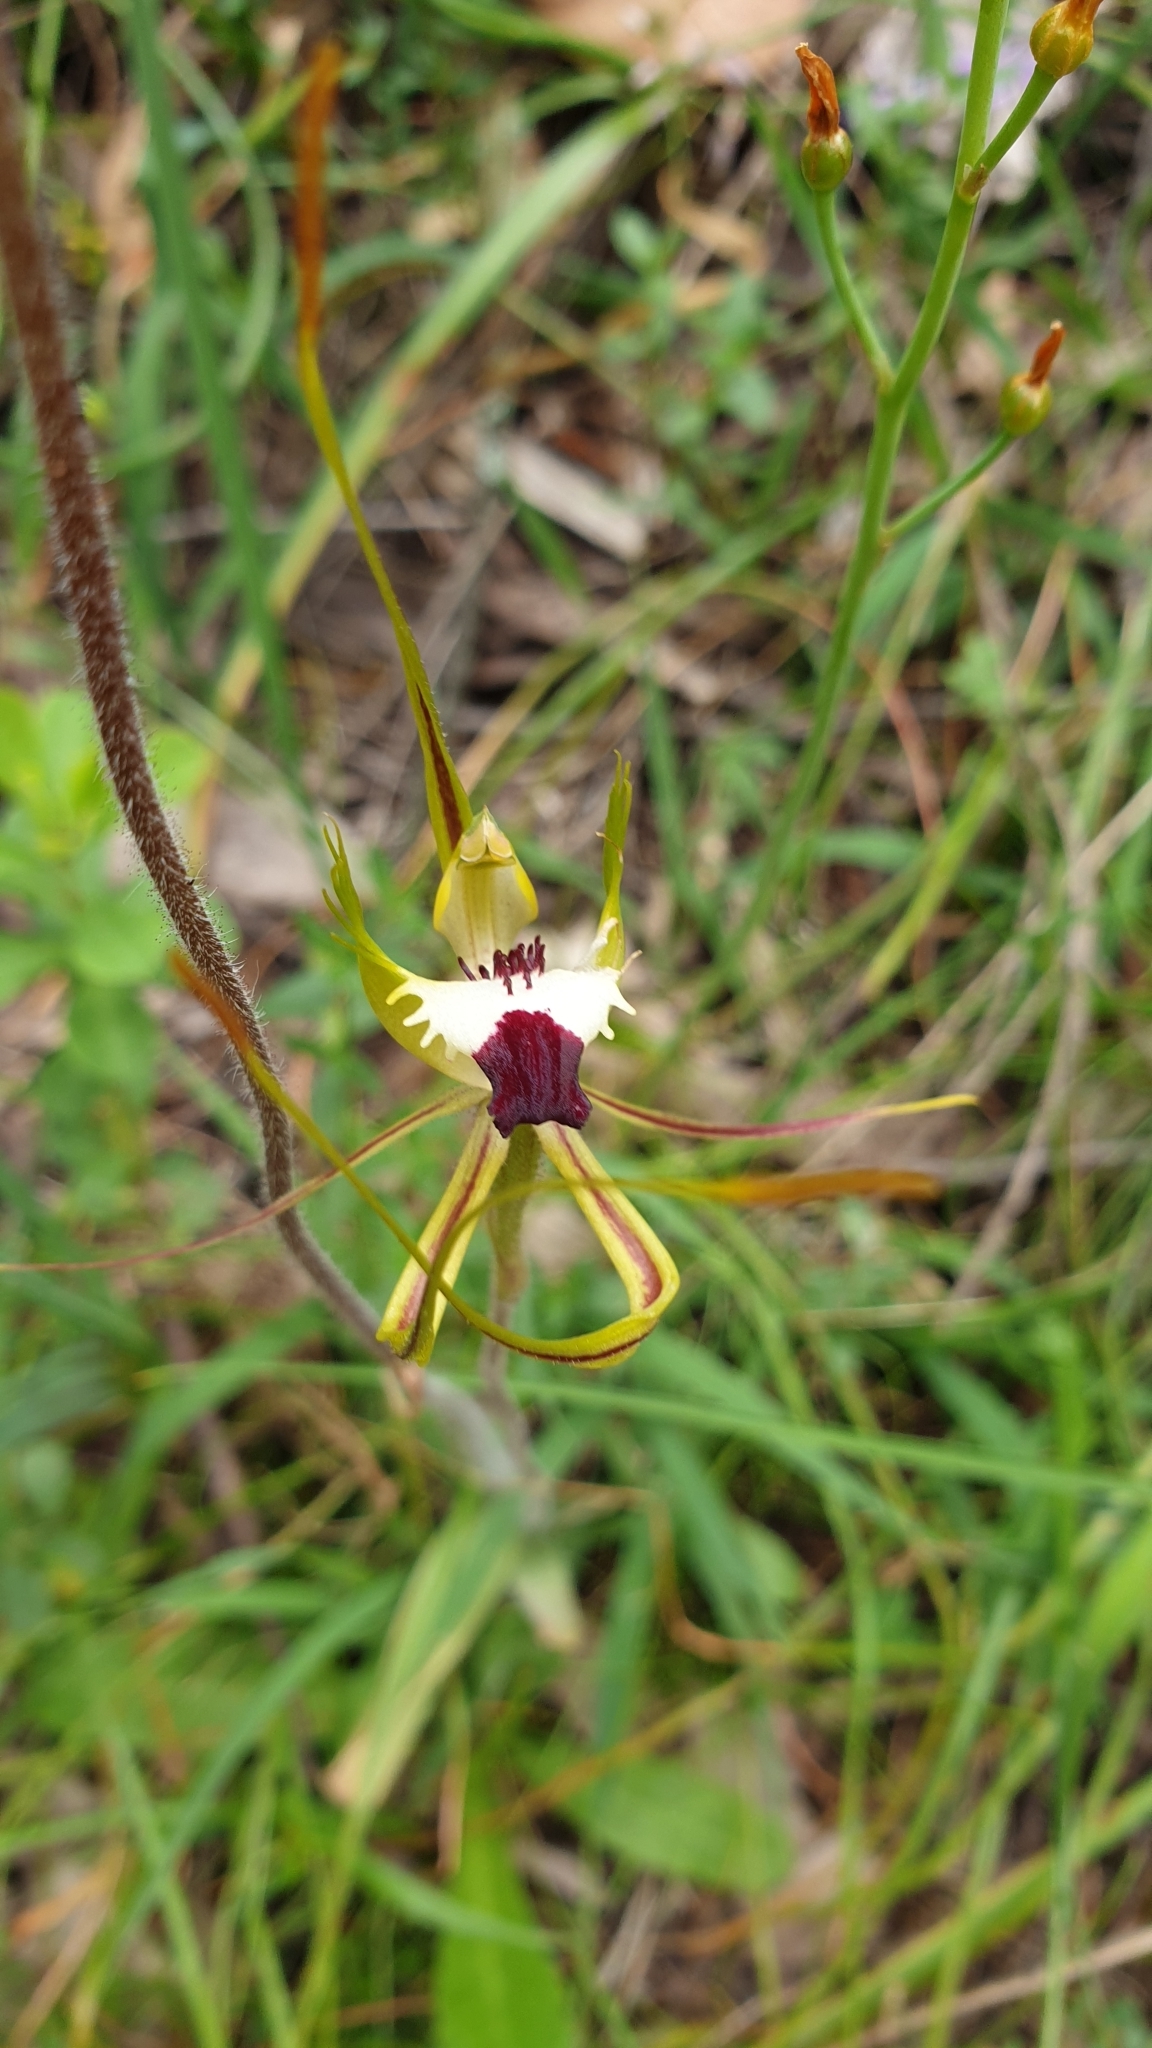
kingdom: Plantae
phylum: Tracheophyta
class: Liliopsida
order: Asparagales
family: Orchidaceae
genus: Caladenia
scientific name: Caladenia tentaculata
